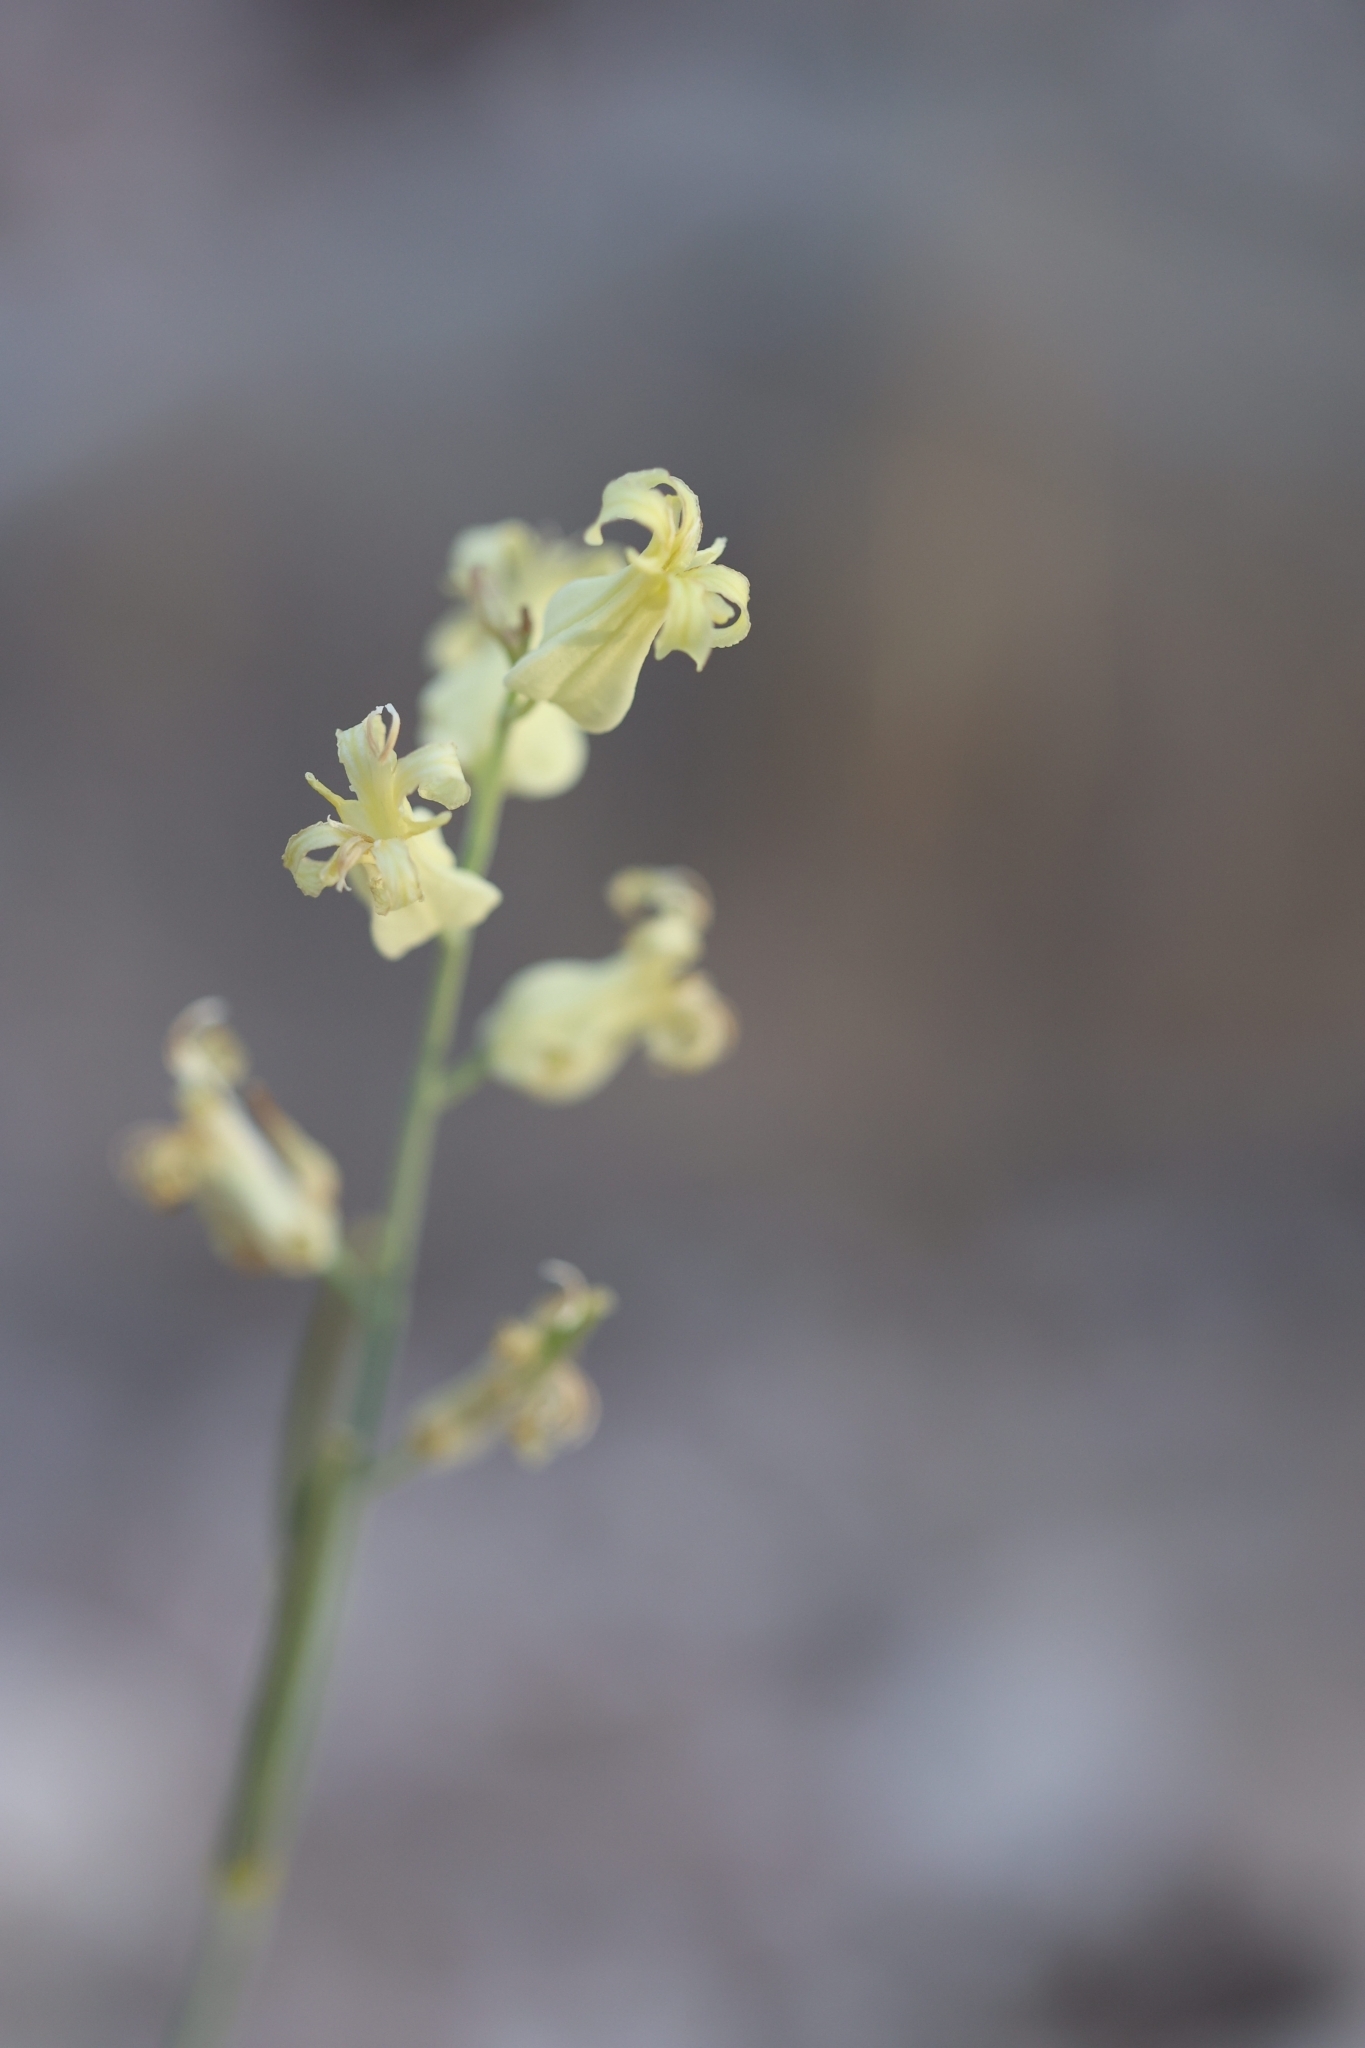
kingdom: Plantae
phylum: Tracheophyta
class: Magnoliopsida
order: Brassicales
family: Brassicaceae
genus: Streptanthus
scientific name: Streptanthus carinatus
